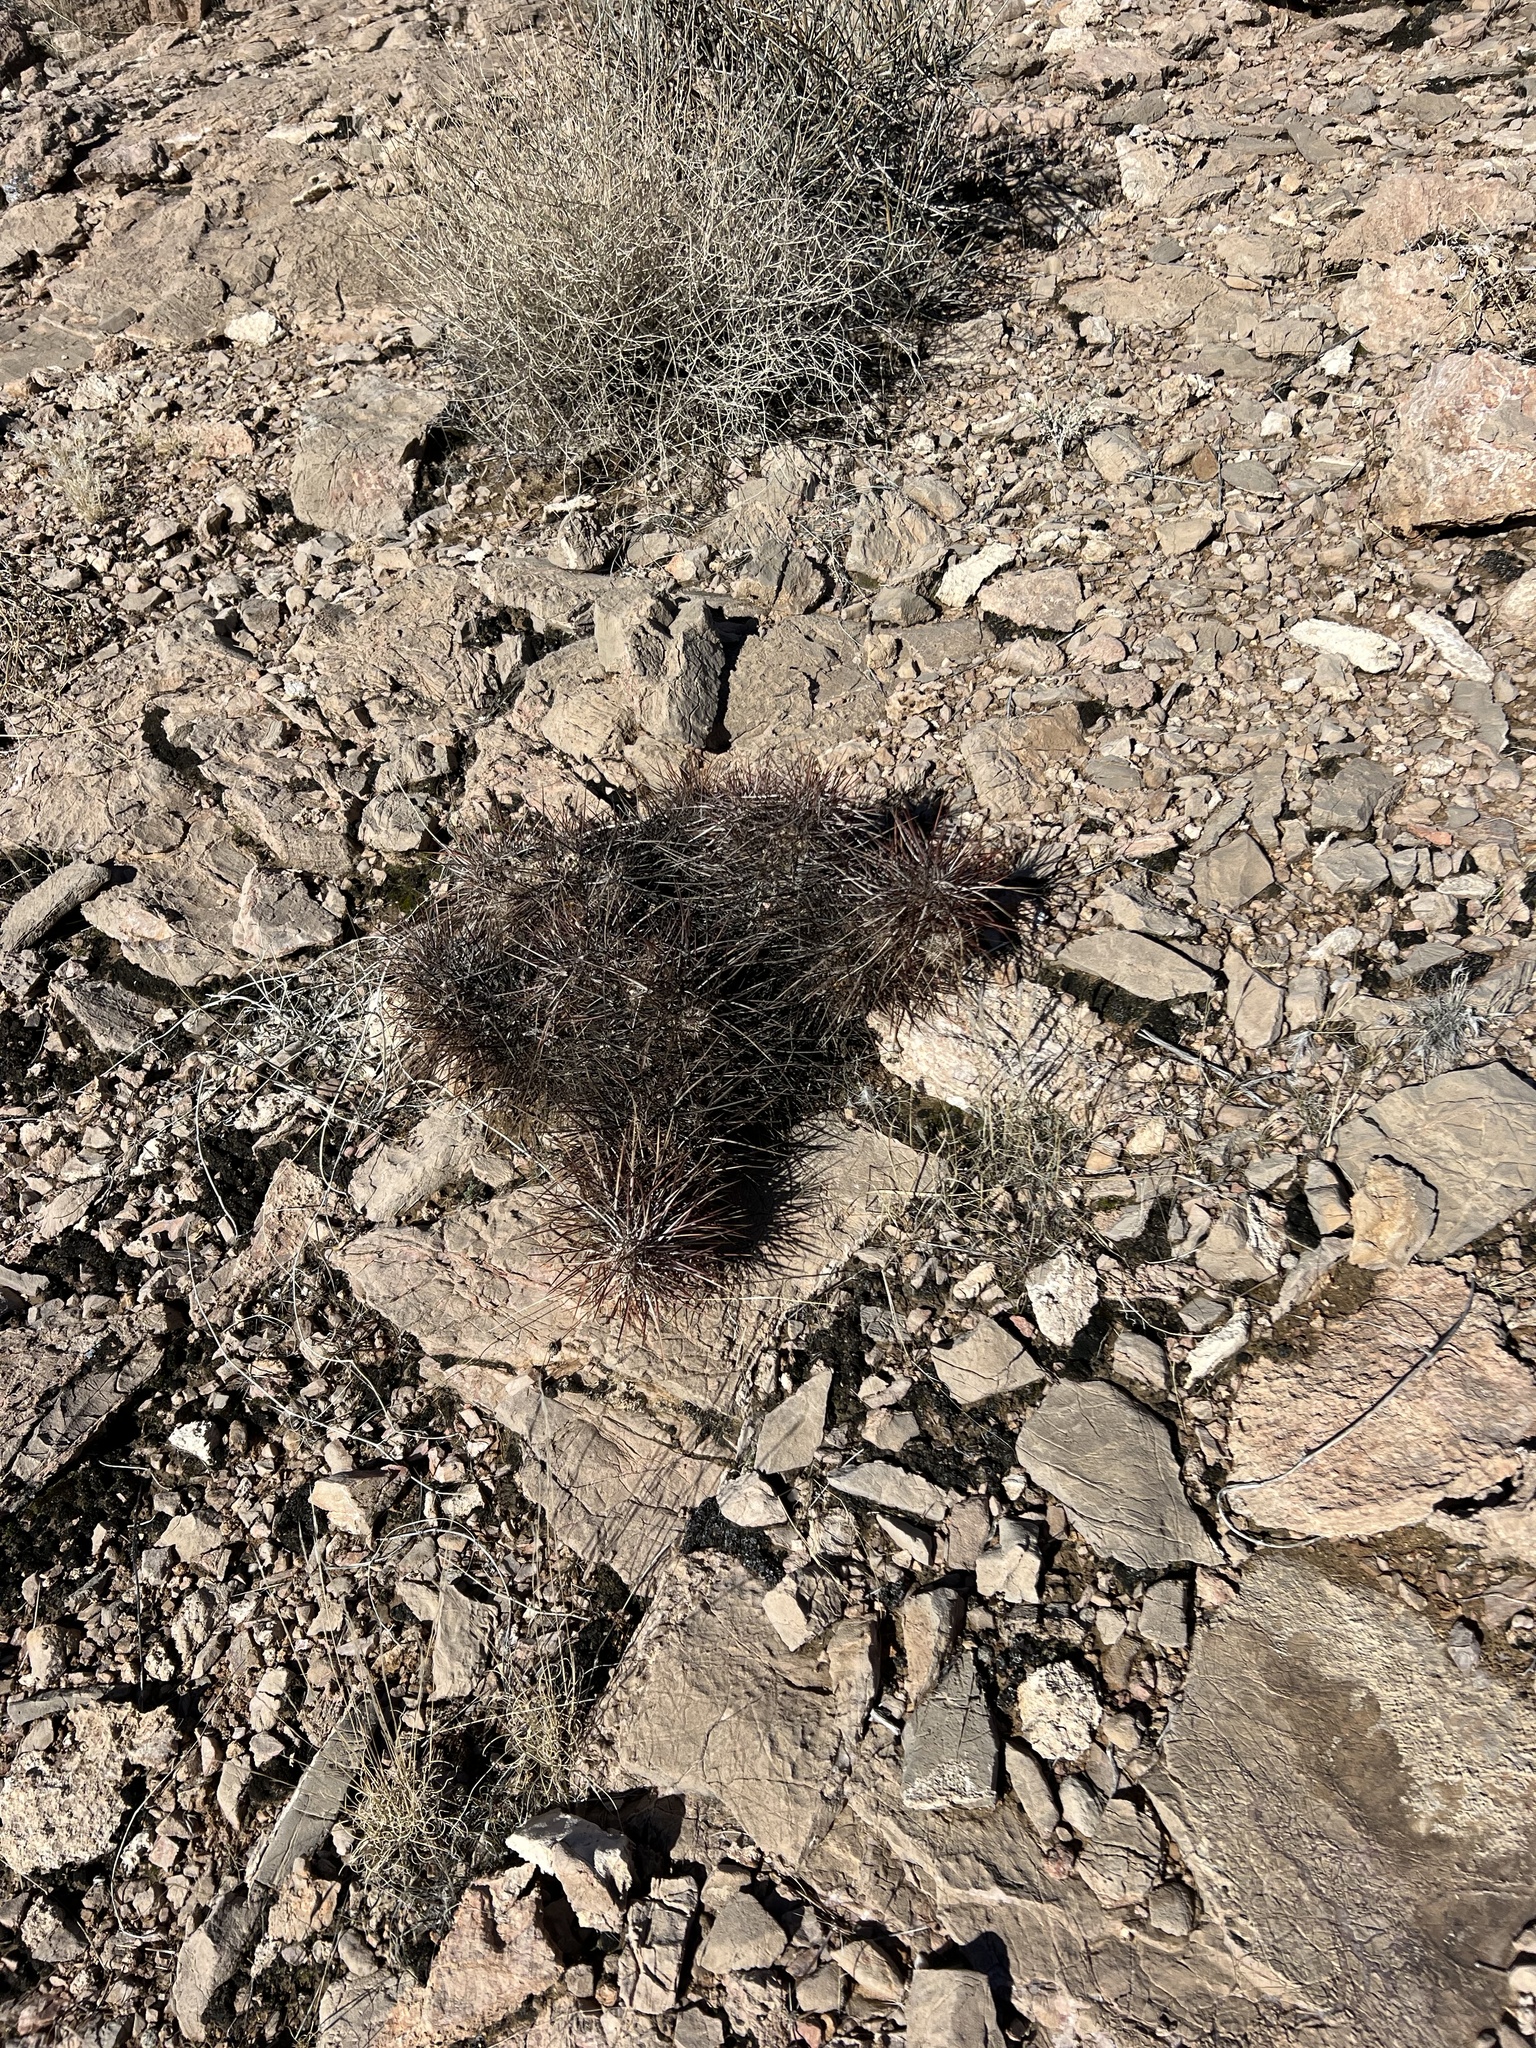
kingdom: Plantae
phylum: Tracheophyta
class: Magnoliopsida
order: Caryophyllales
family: Cactaceae
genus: Echinocereus
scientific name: Echinocereus engelmannii
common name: Engelmann's hedgehog cactus
